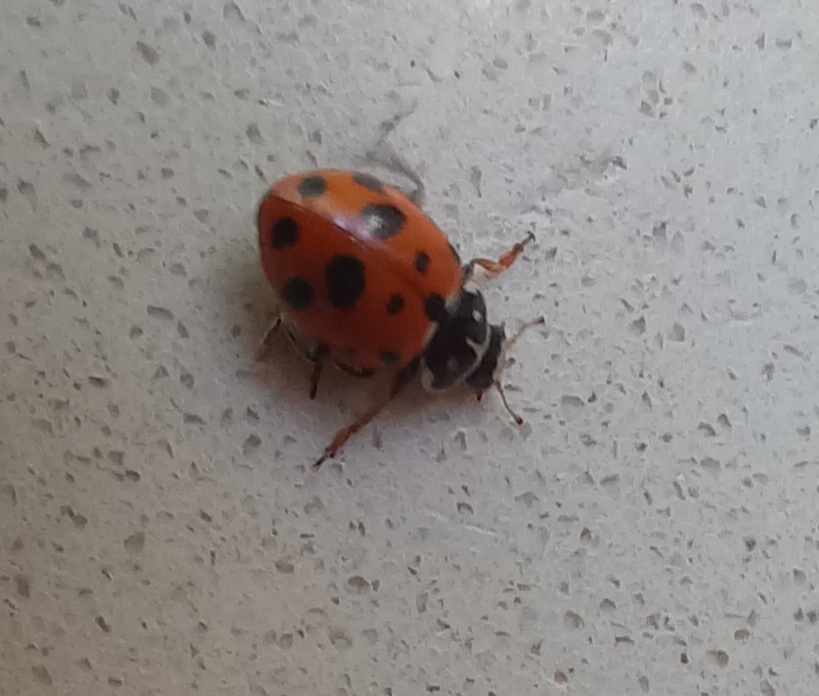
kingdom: Animalia
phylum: Arthropoda
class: Insecta
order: Coleoptera
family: Coccinellidae
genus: Hippodamia
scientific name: Hippodamia variegata
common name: Ladybird beetle
